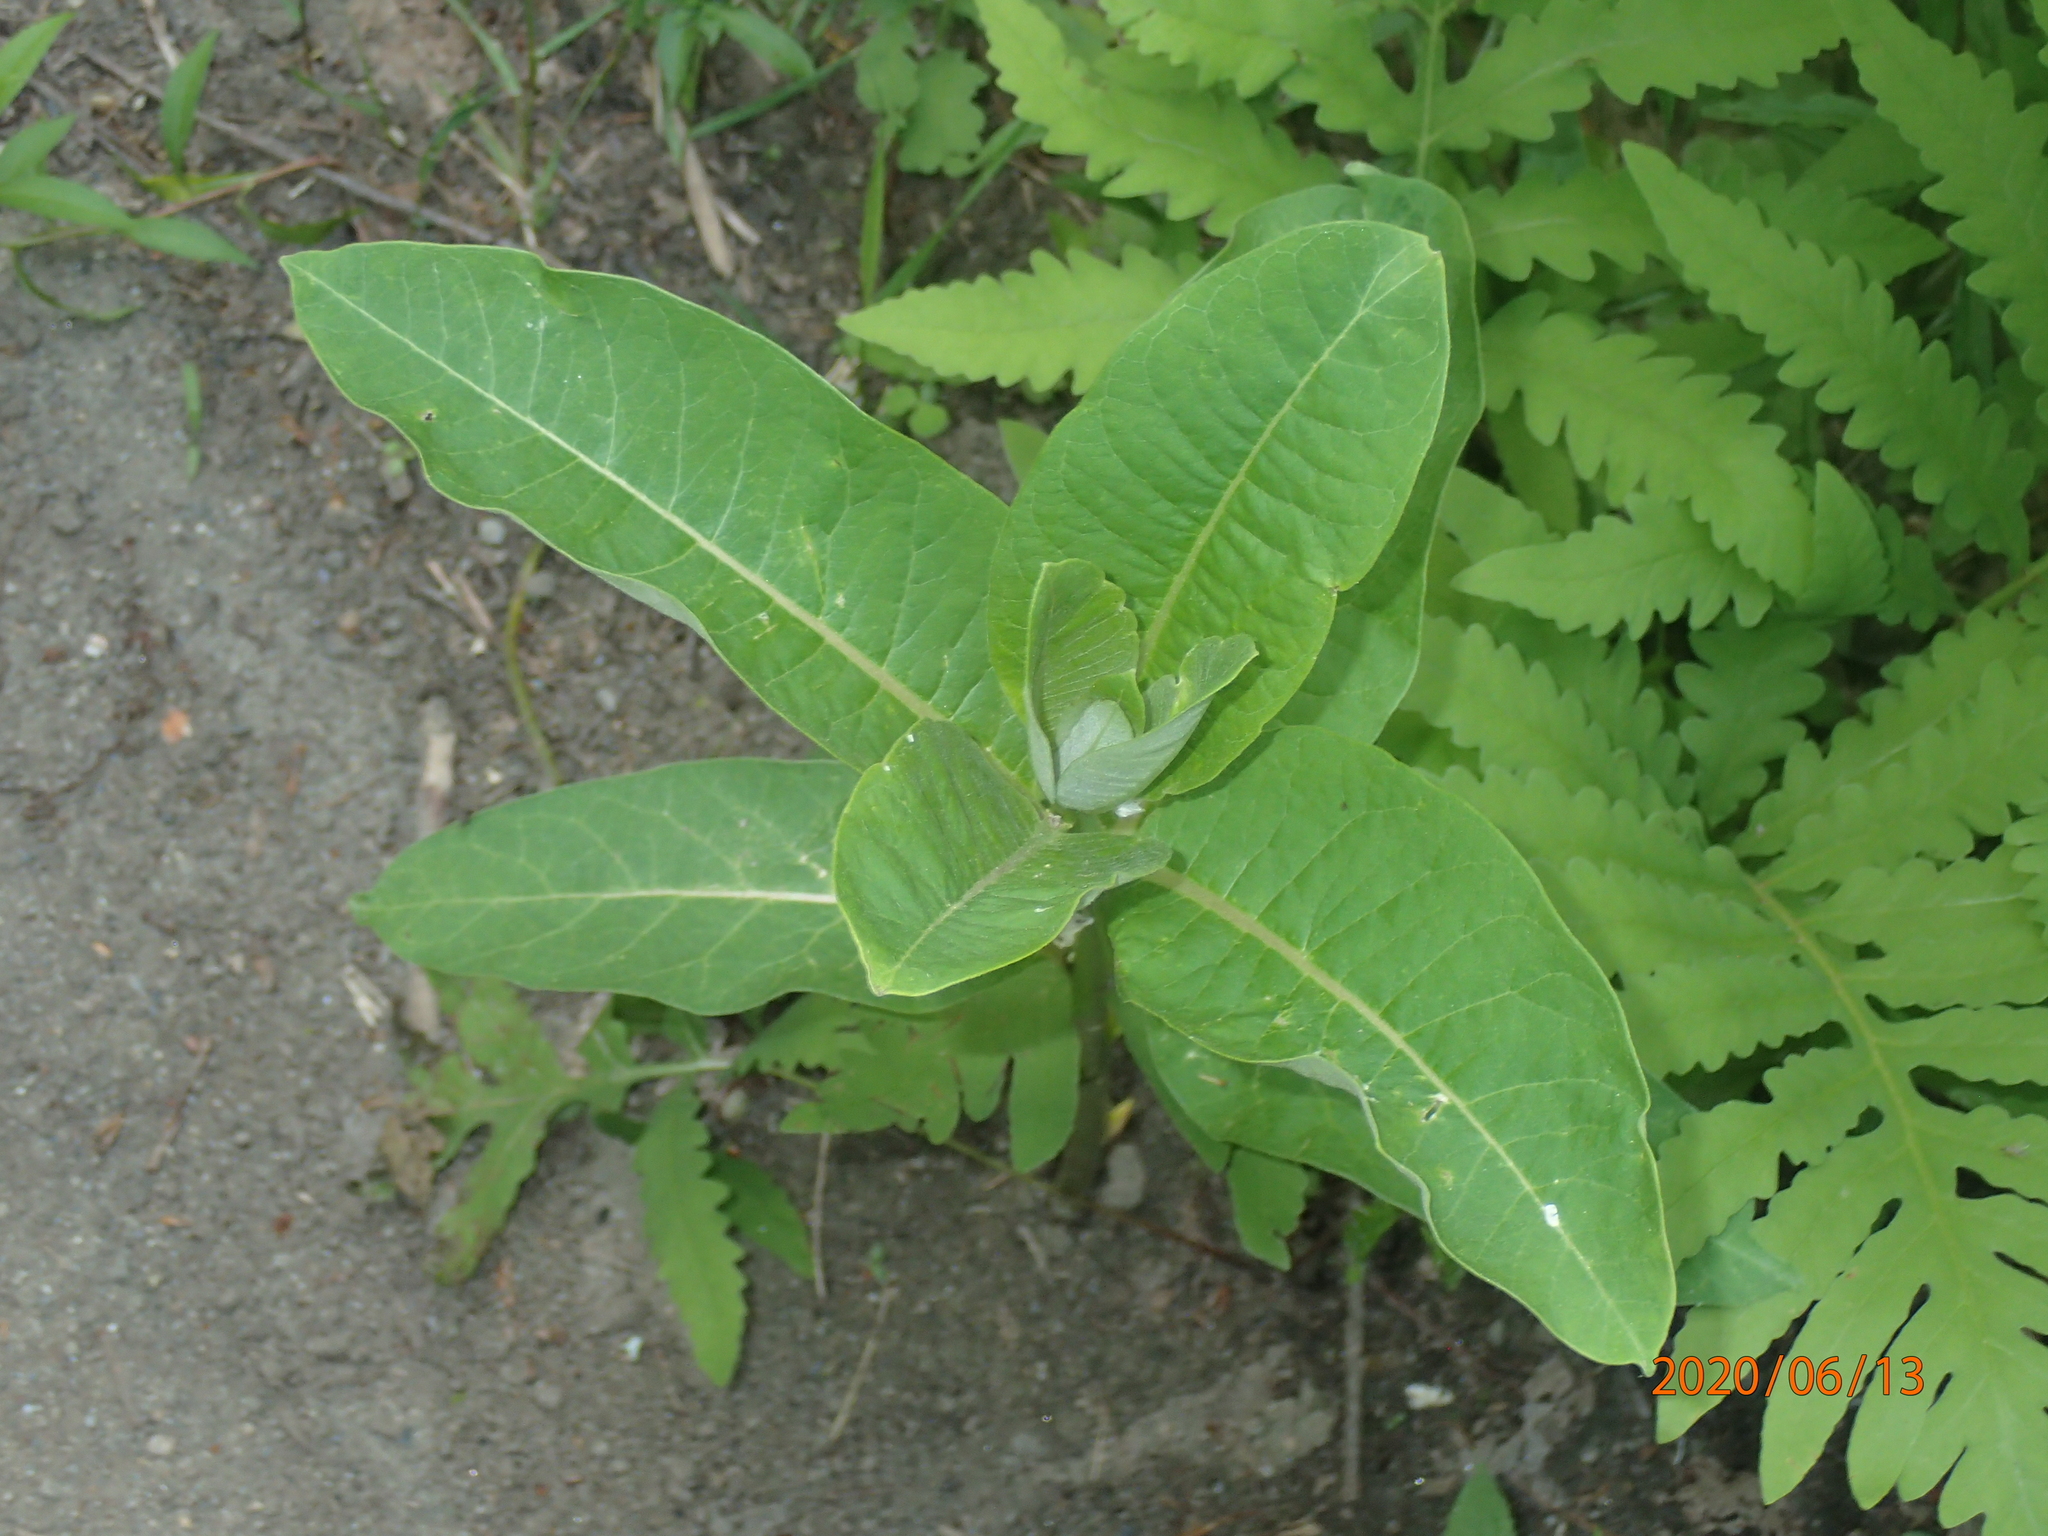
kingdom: Plantae
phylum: Tracheophyta
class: Magnoliopsida
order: Gentianales
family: Apocynaceae
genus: Asclepias
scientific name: Asclepias syriaca
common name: Common milkweed
